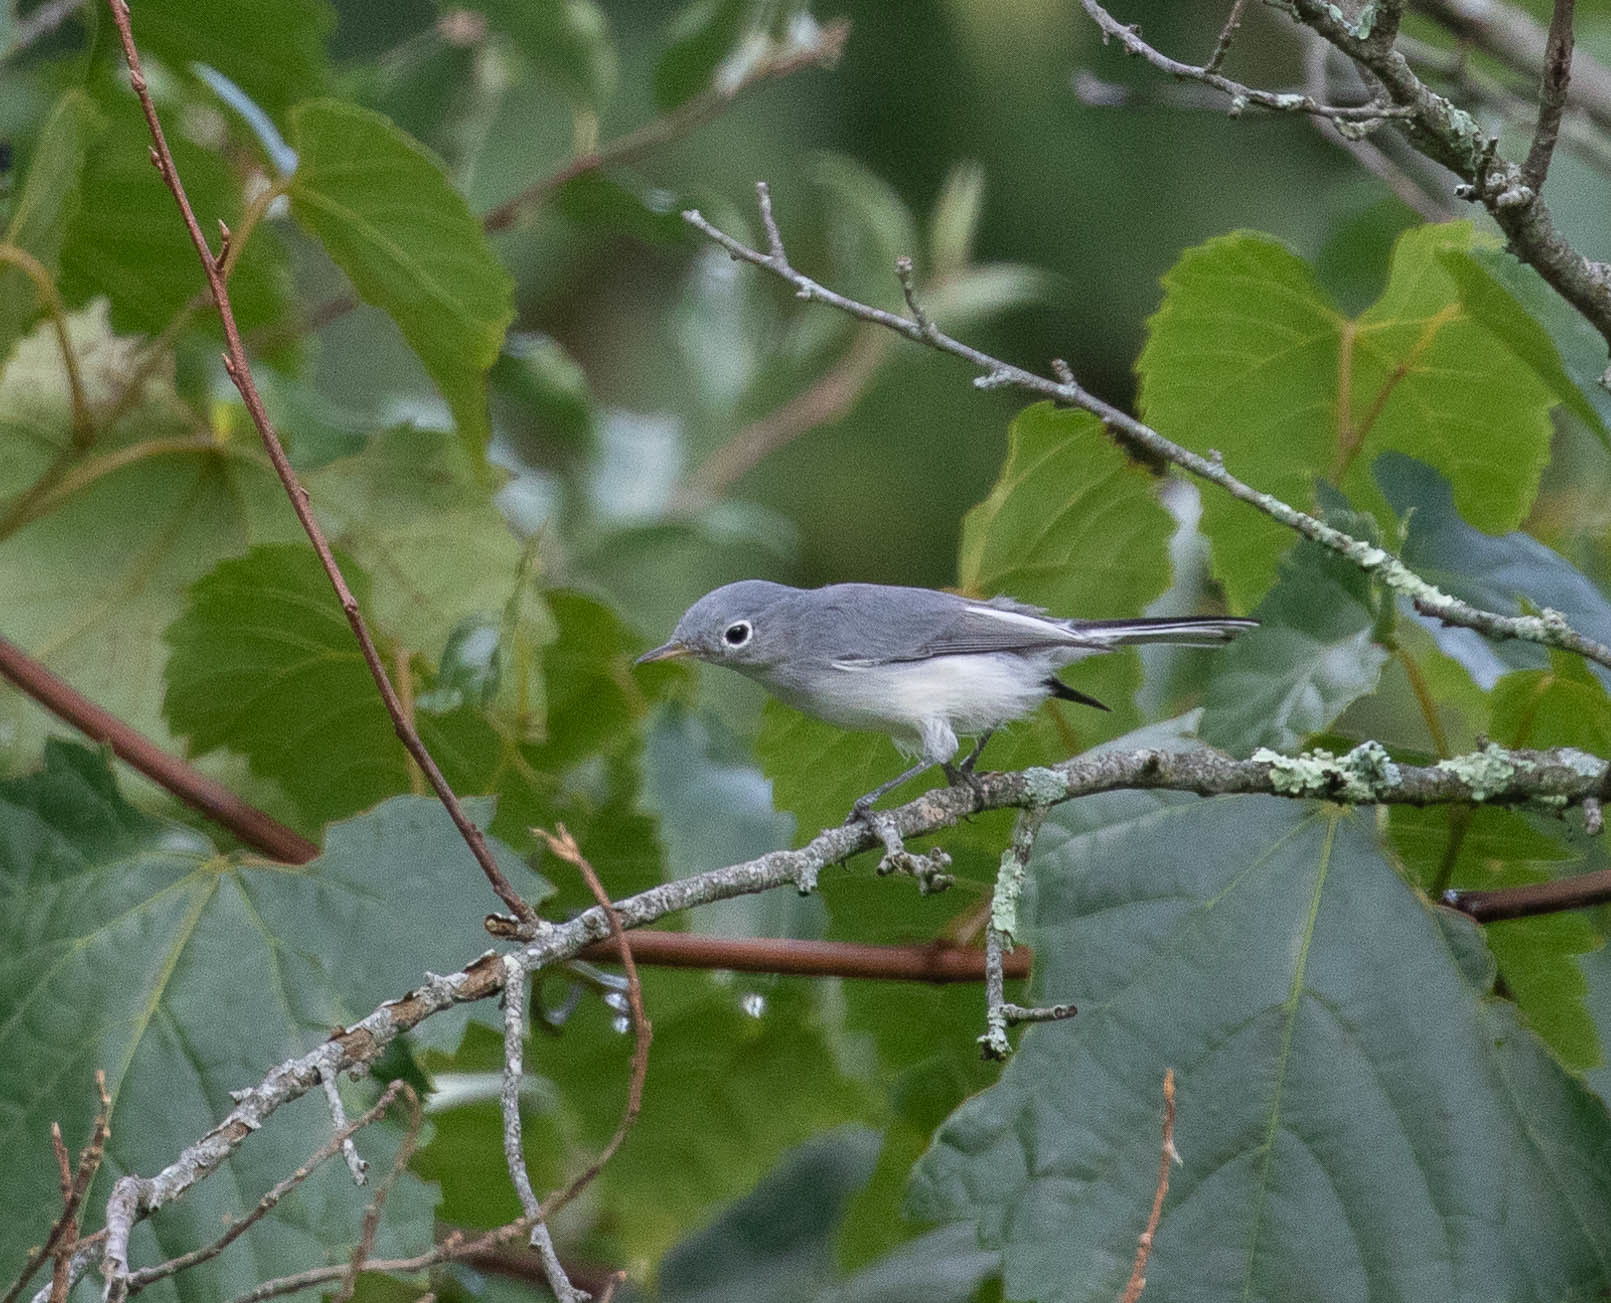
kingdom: Animalia
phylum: Chordata
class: Aves
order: Passeriformes
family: Polioptilidae
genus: Polioptila
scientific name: Polioptila caerulea
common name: Blue-gray gnatcatcher
